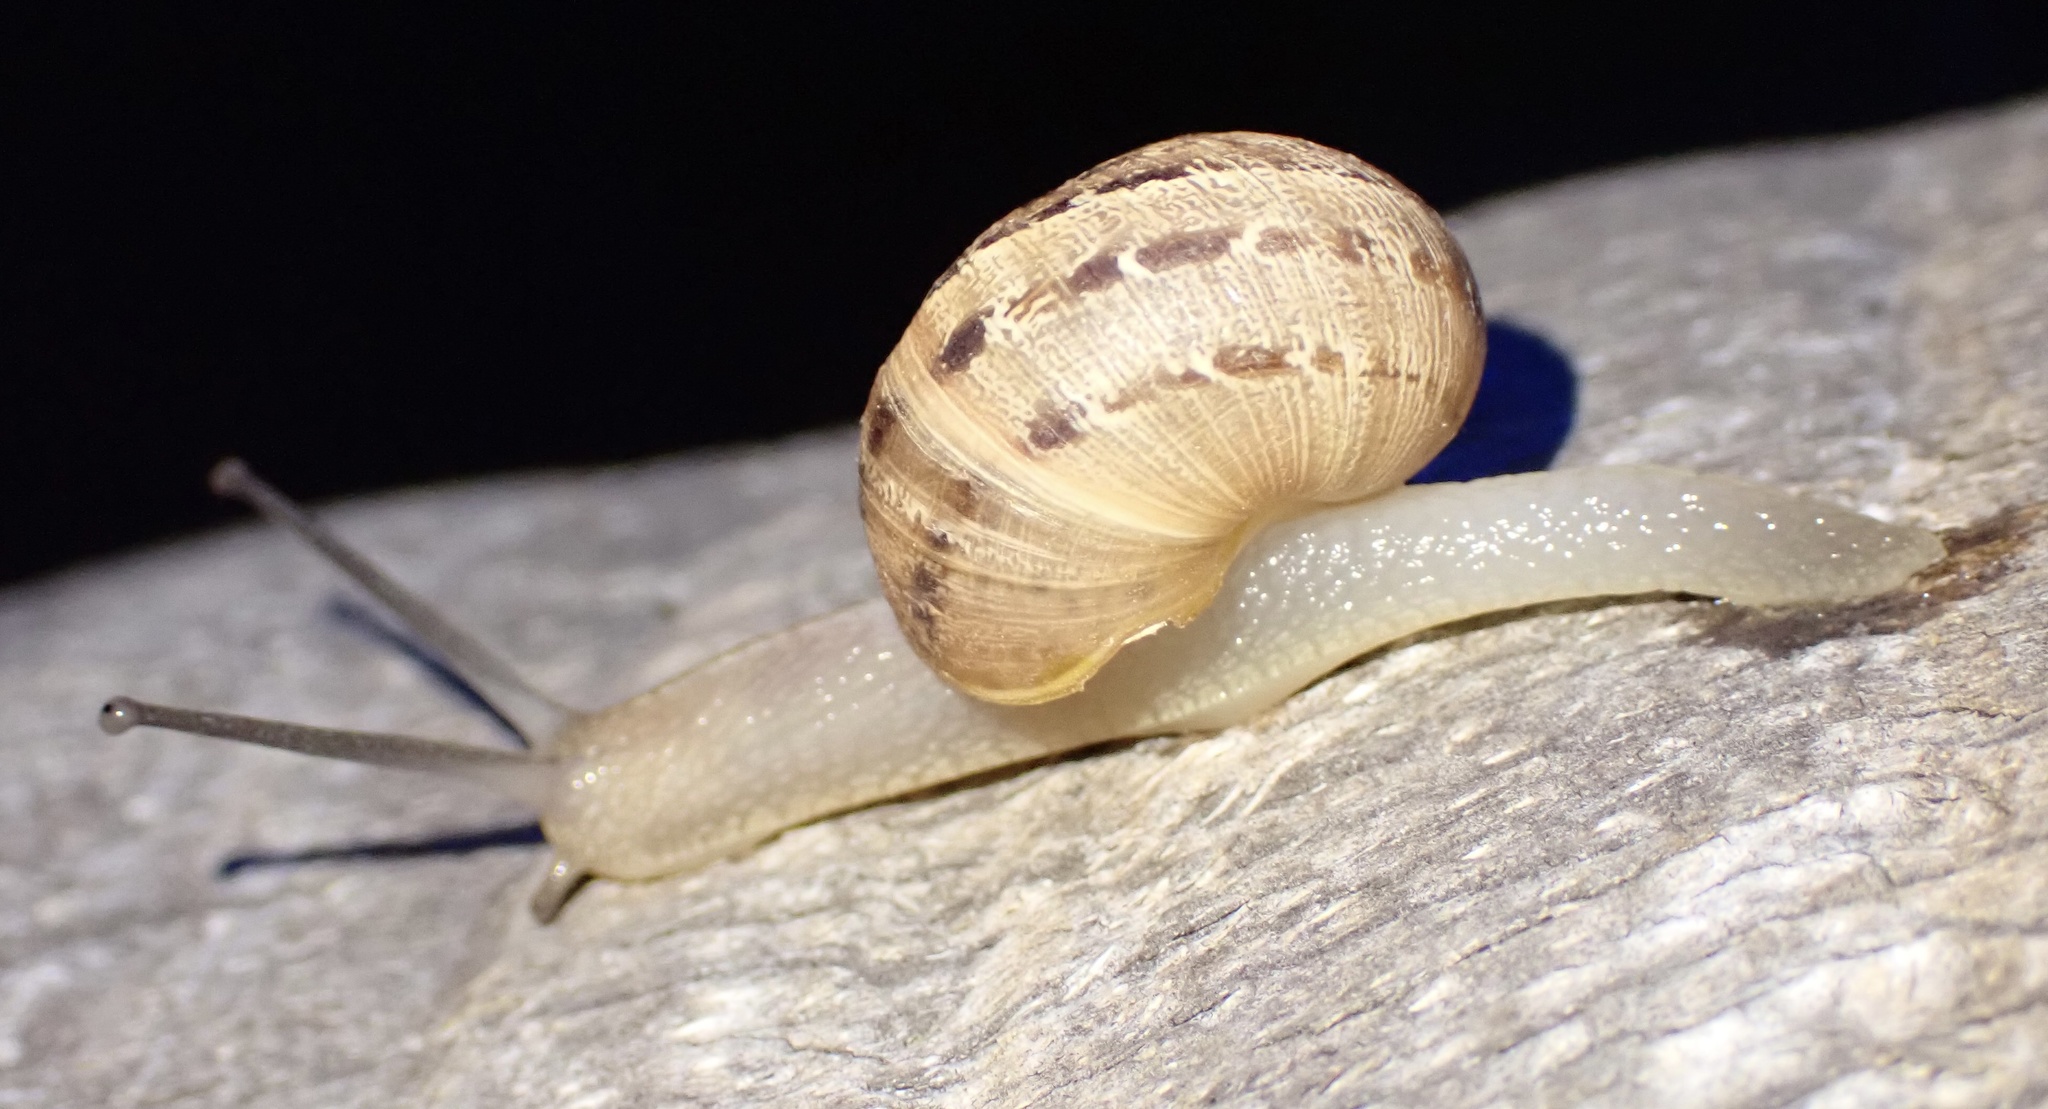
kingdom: Animalia
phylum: Mollusca
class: Gastropoda
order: Stylommatophora
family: Helicidae
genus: Cornu
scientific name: Cornu aspersum
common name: Brown garden snail
